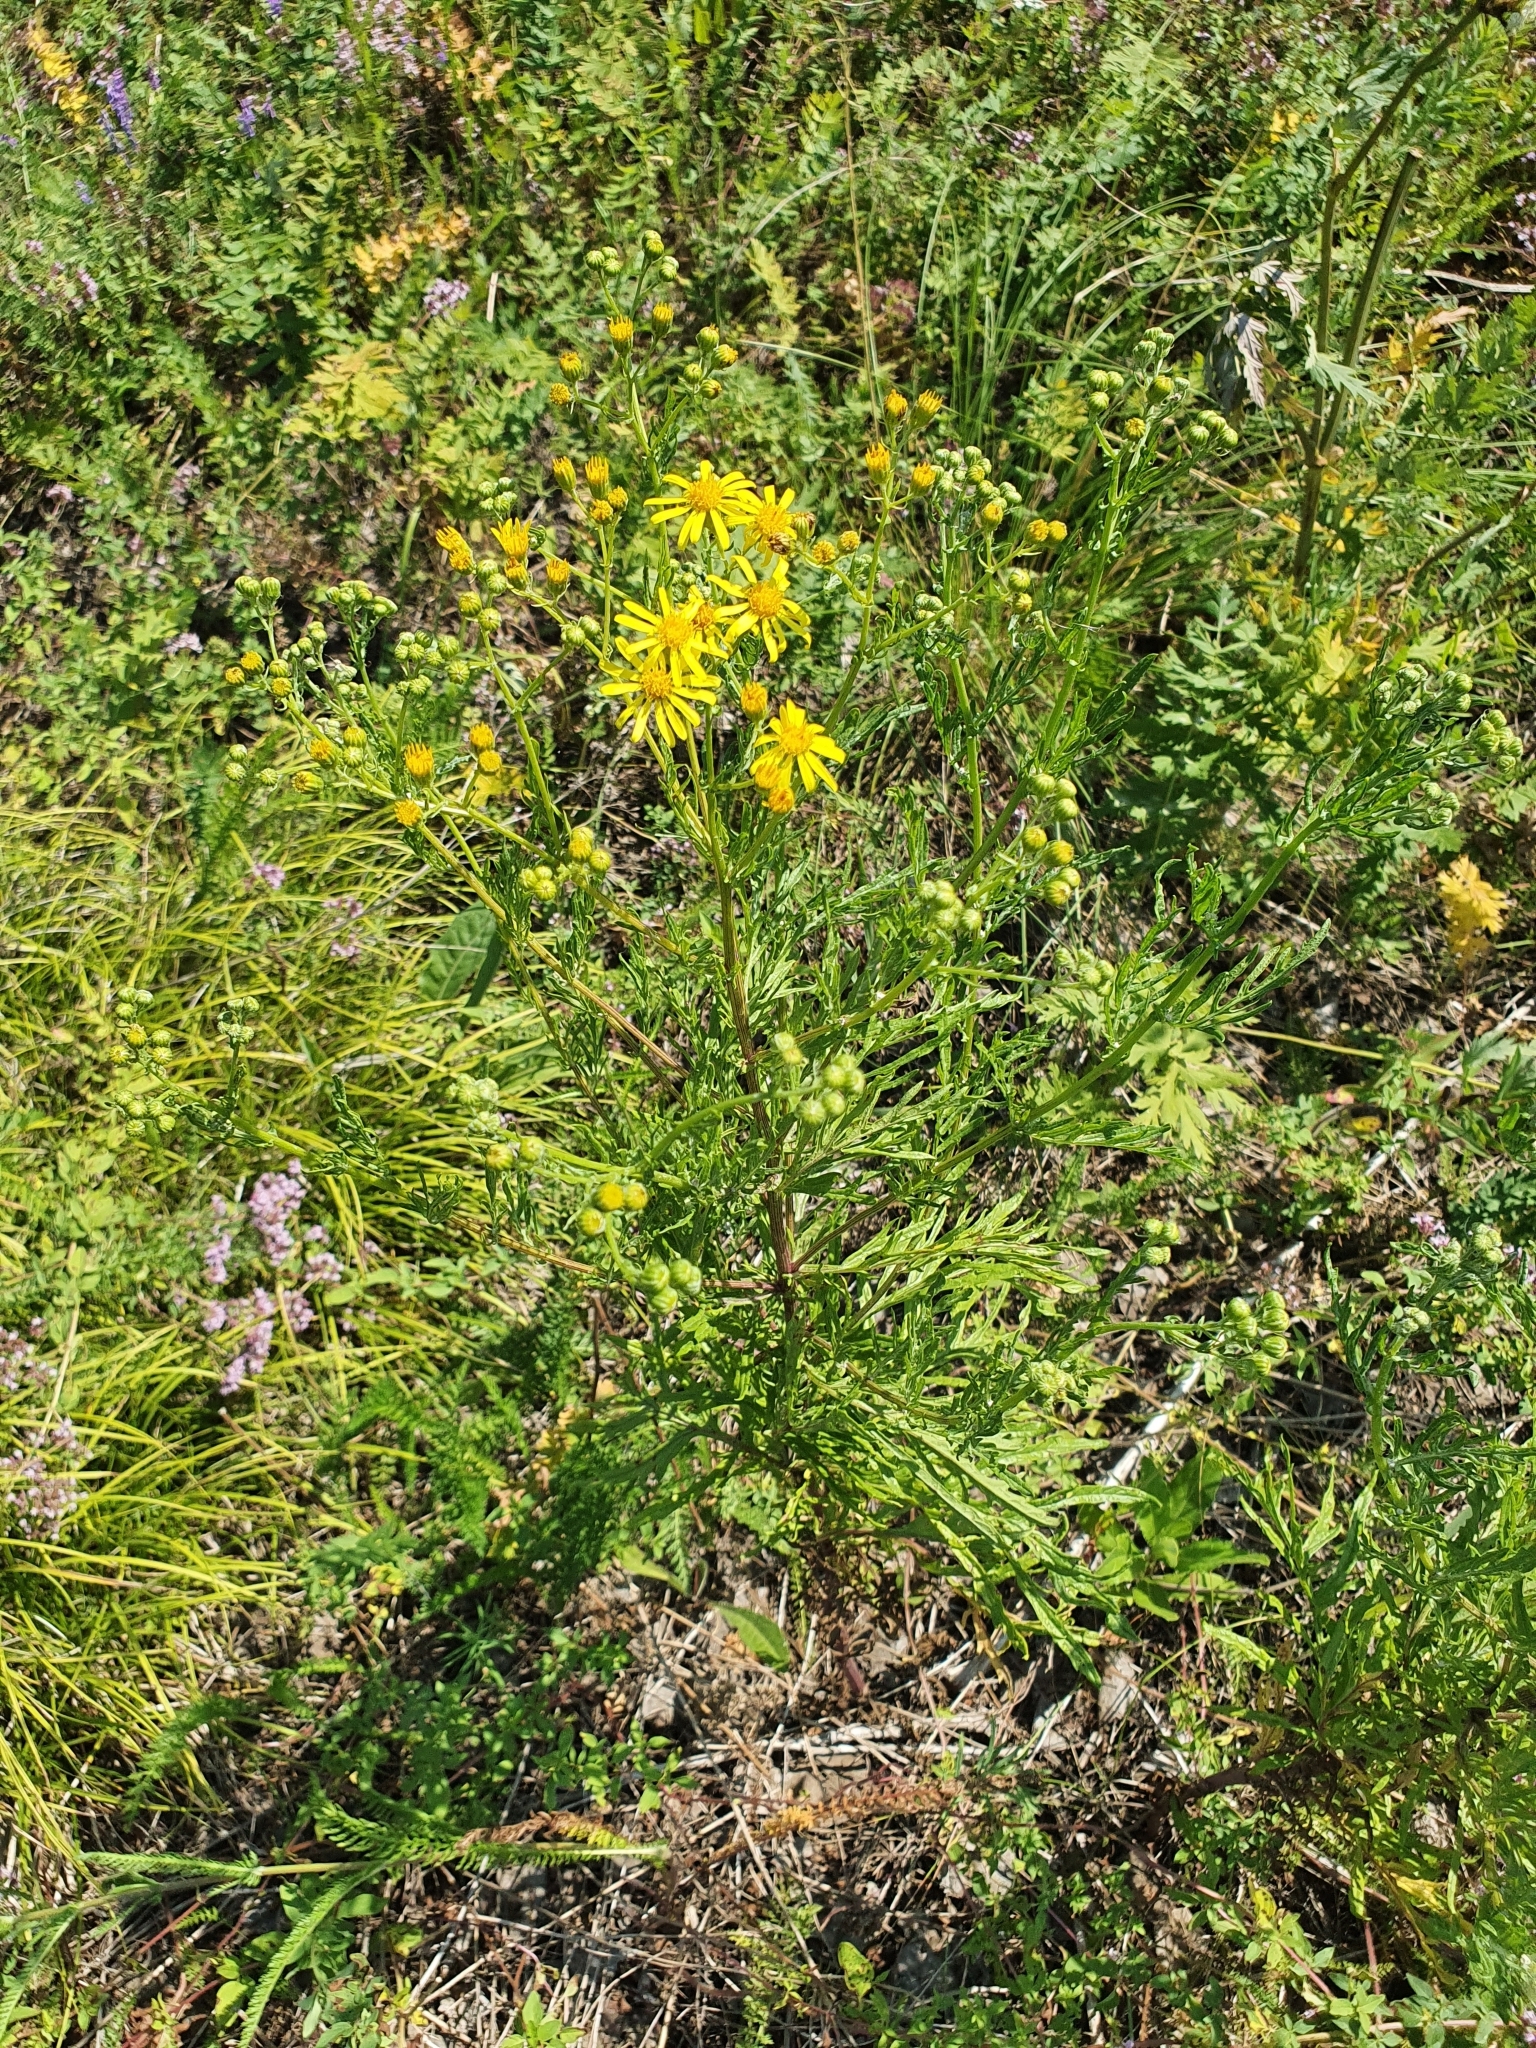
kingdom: Plantae
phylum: Tracheophyta
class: Magnoliopsida
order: Asterales
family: Asteraceae
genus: Jacobaea
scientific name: Jacobaea erucifolia
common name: Hoary ragwort
